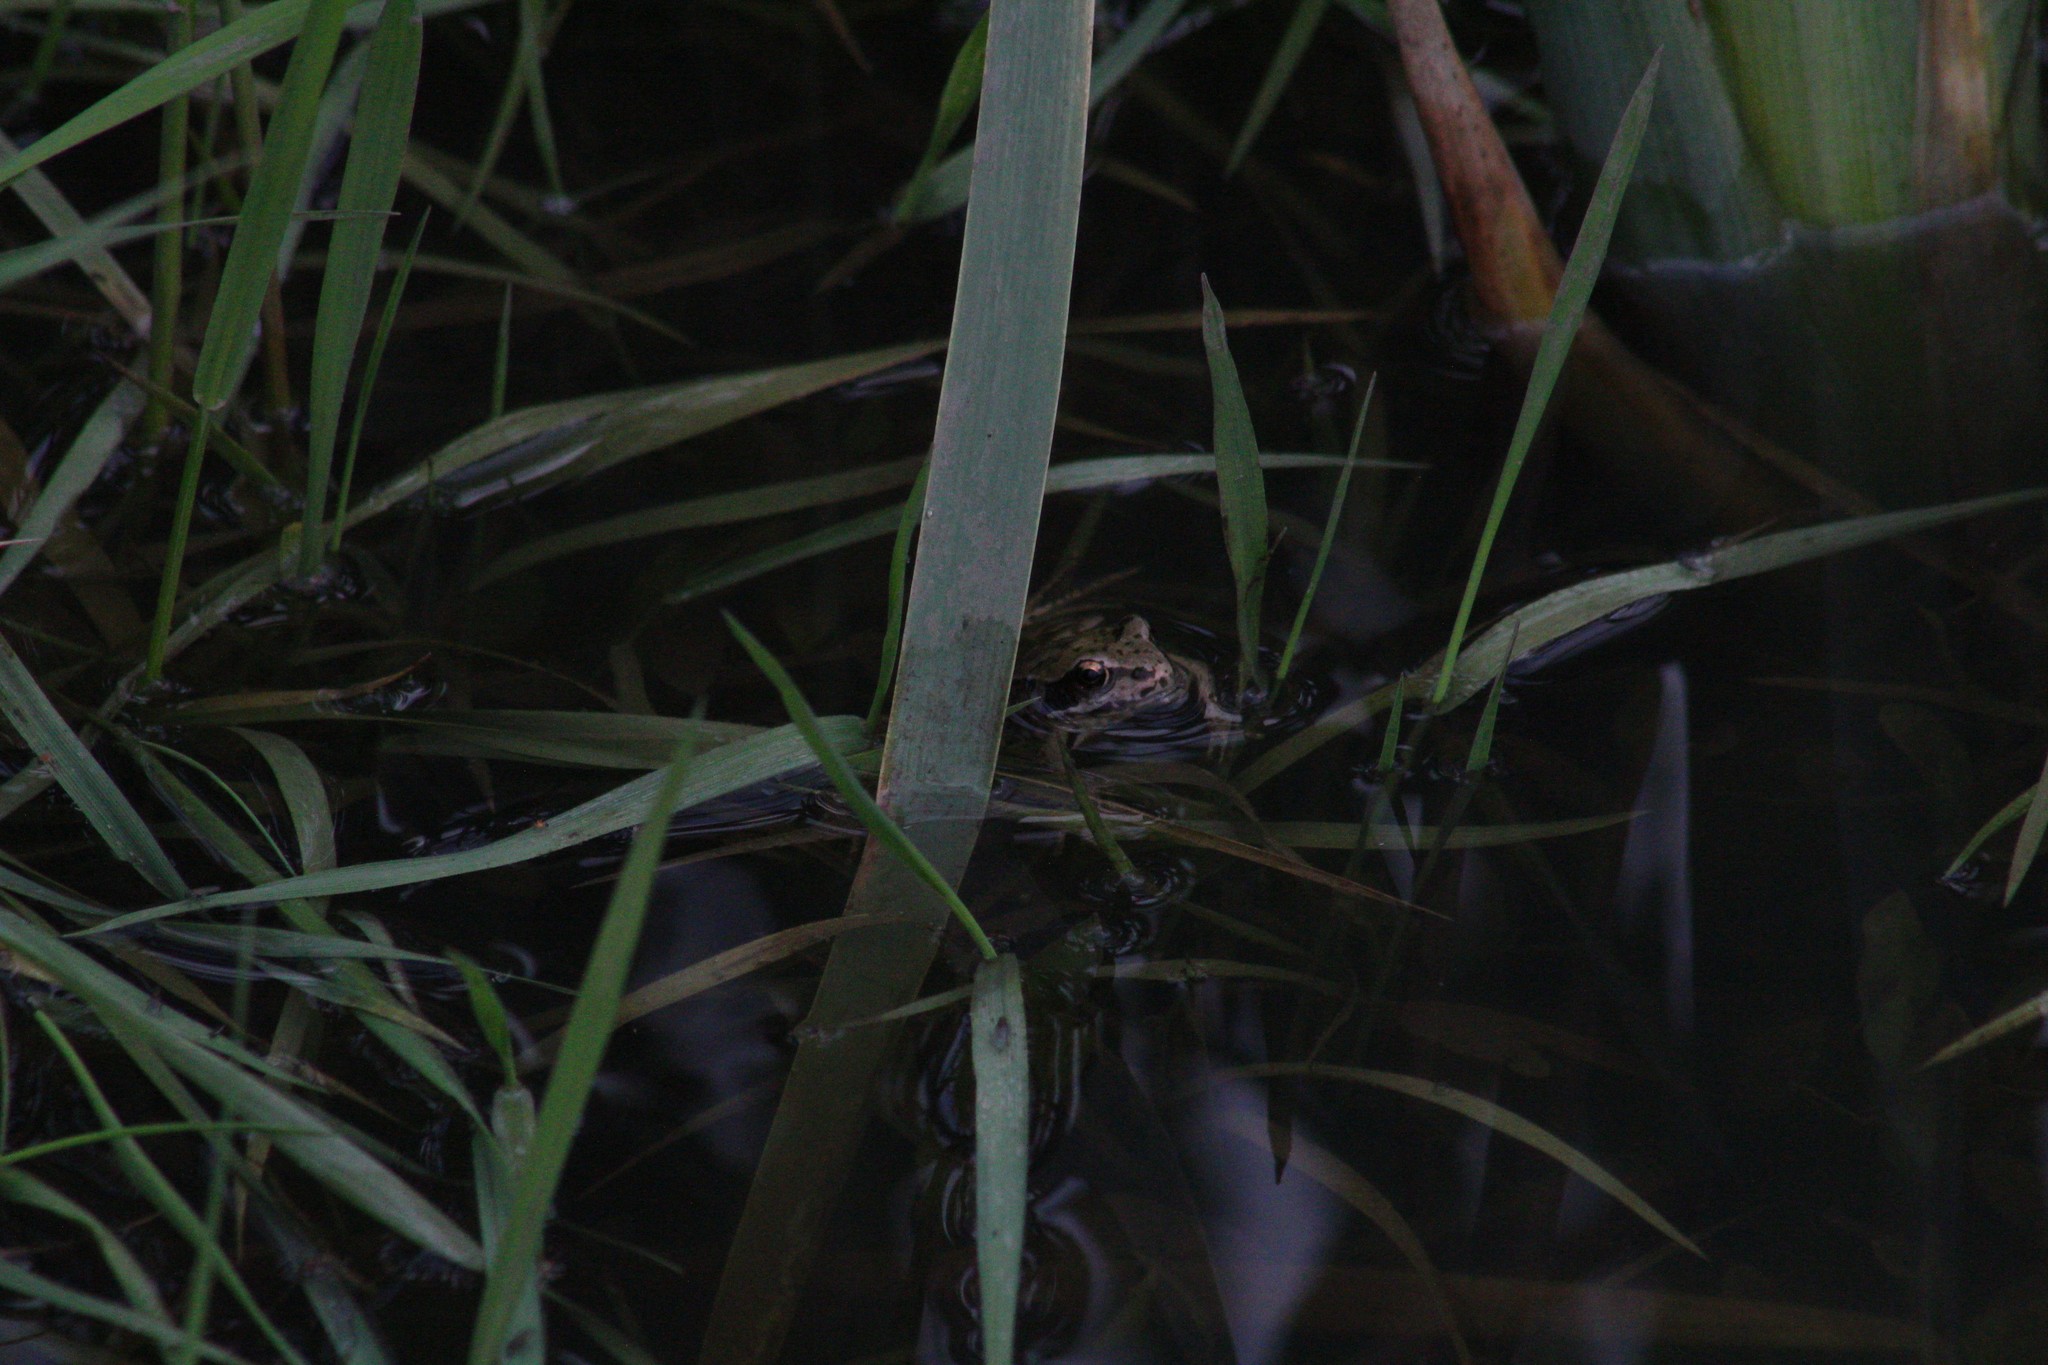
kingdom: Animalia
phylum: Chordata
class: Amphibia
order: Anura
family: Ranidae
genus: Rana
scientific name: Rana temporaria
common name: Common frog
